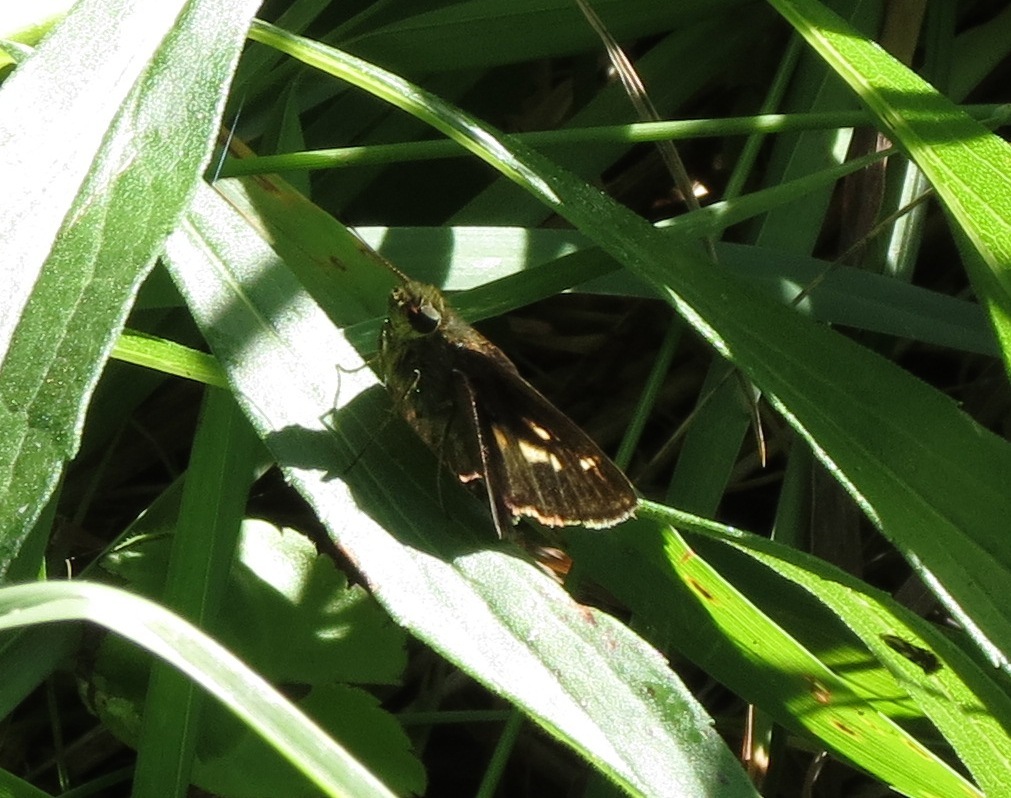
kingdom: Animalia
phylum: Arthropoda
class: Insecta
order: Lepidoptera
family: Hesperiidae
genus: Vernia
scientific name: Vernia verna
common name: Little glassywing
